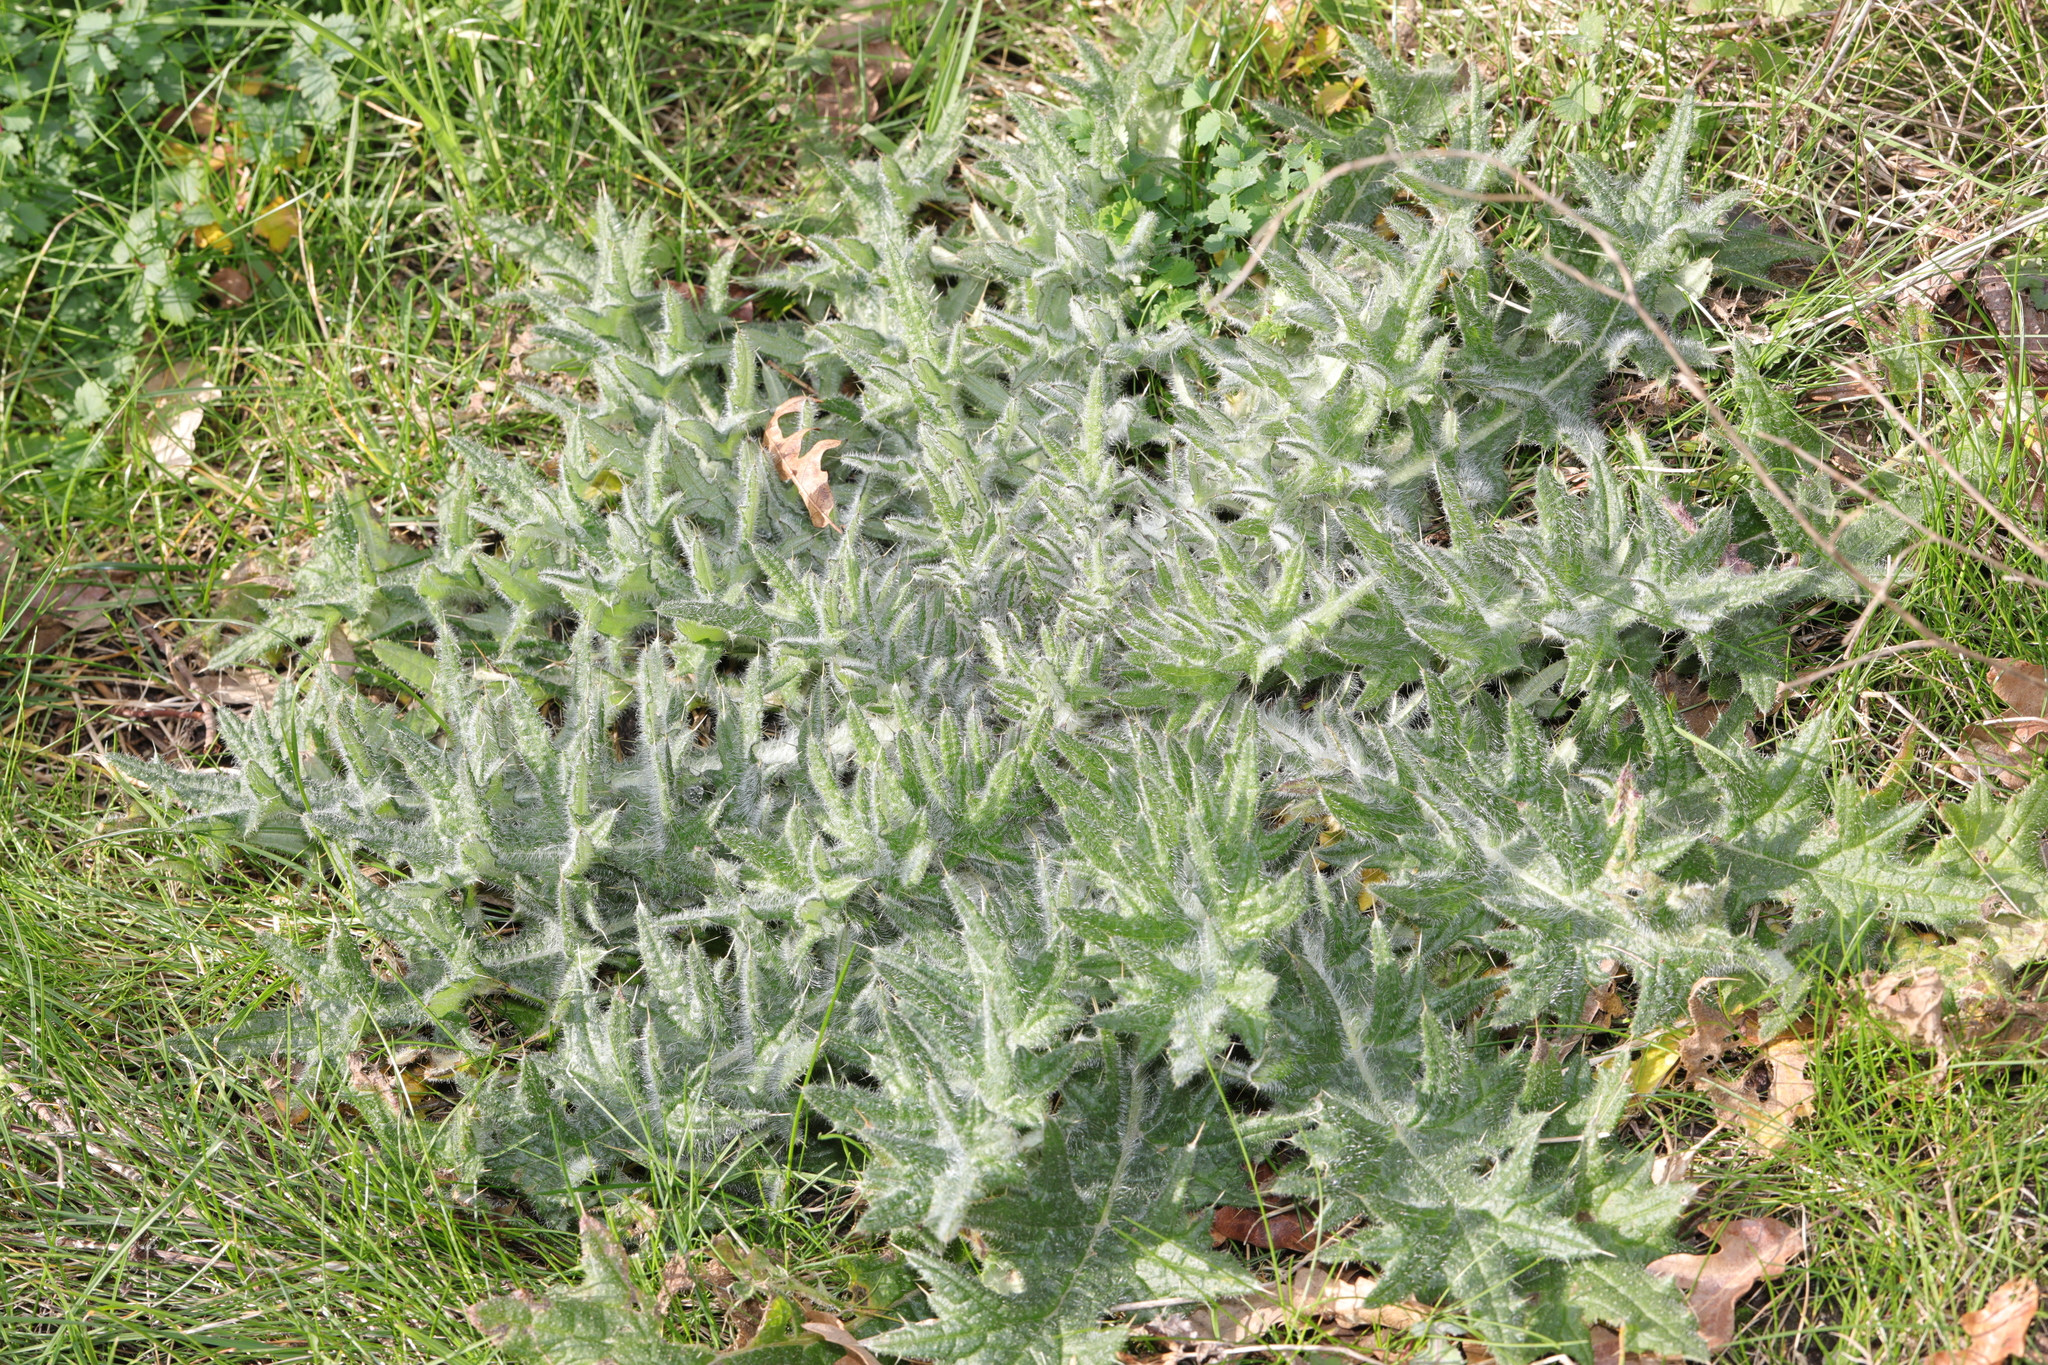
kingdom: Plantae
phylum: Tracheophyta
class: Magnoliopsida
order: Asterales
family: Asteraceae
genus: Cirsium
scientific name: Cirsium vulgare
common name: Bull thistle
